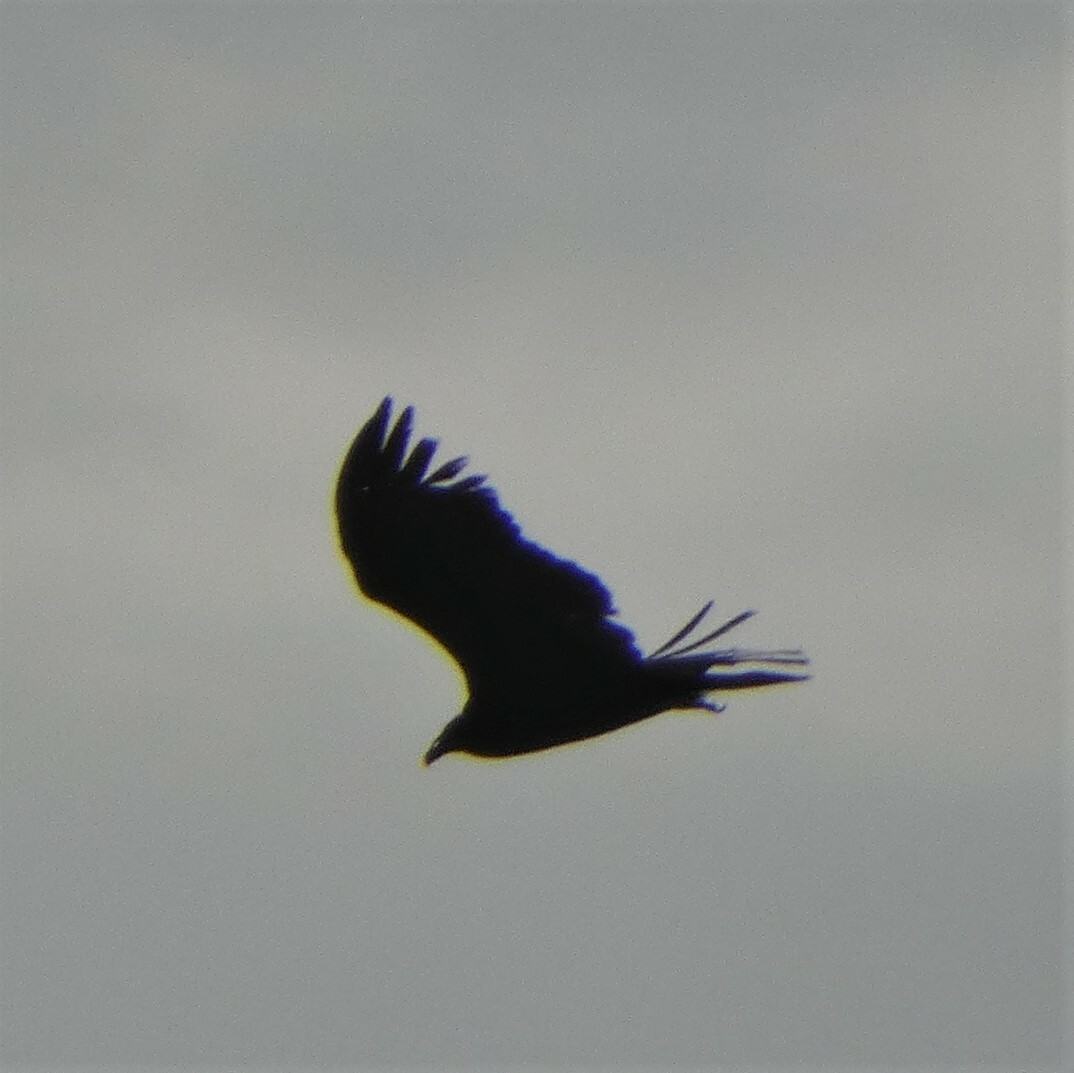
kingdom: Animalia
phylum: Chordata
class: Aves
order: Accipitriformes
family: Cathartidae
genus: Cathartes
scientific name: Cathartes aura
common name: Turkey vulture
